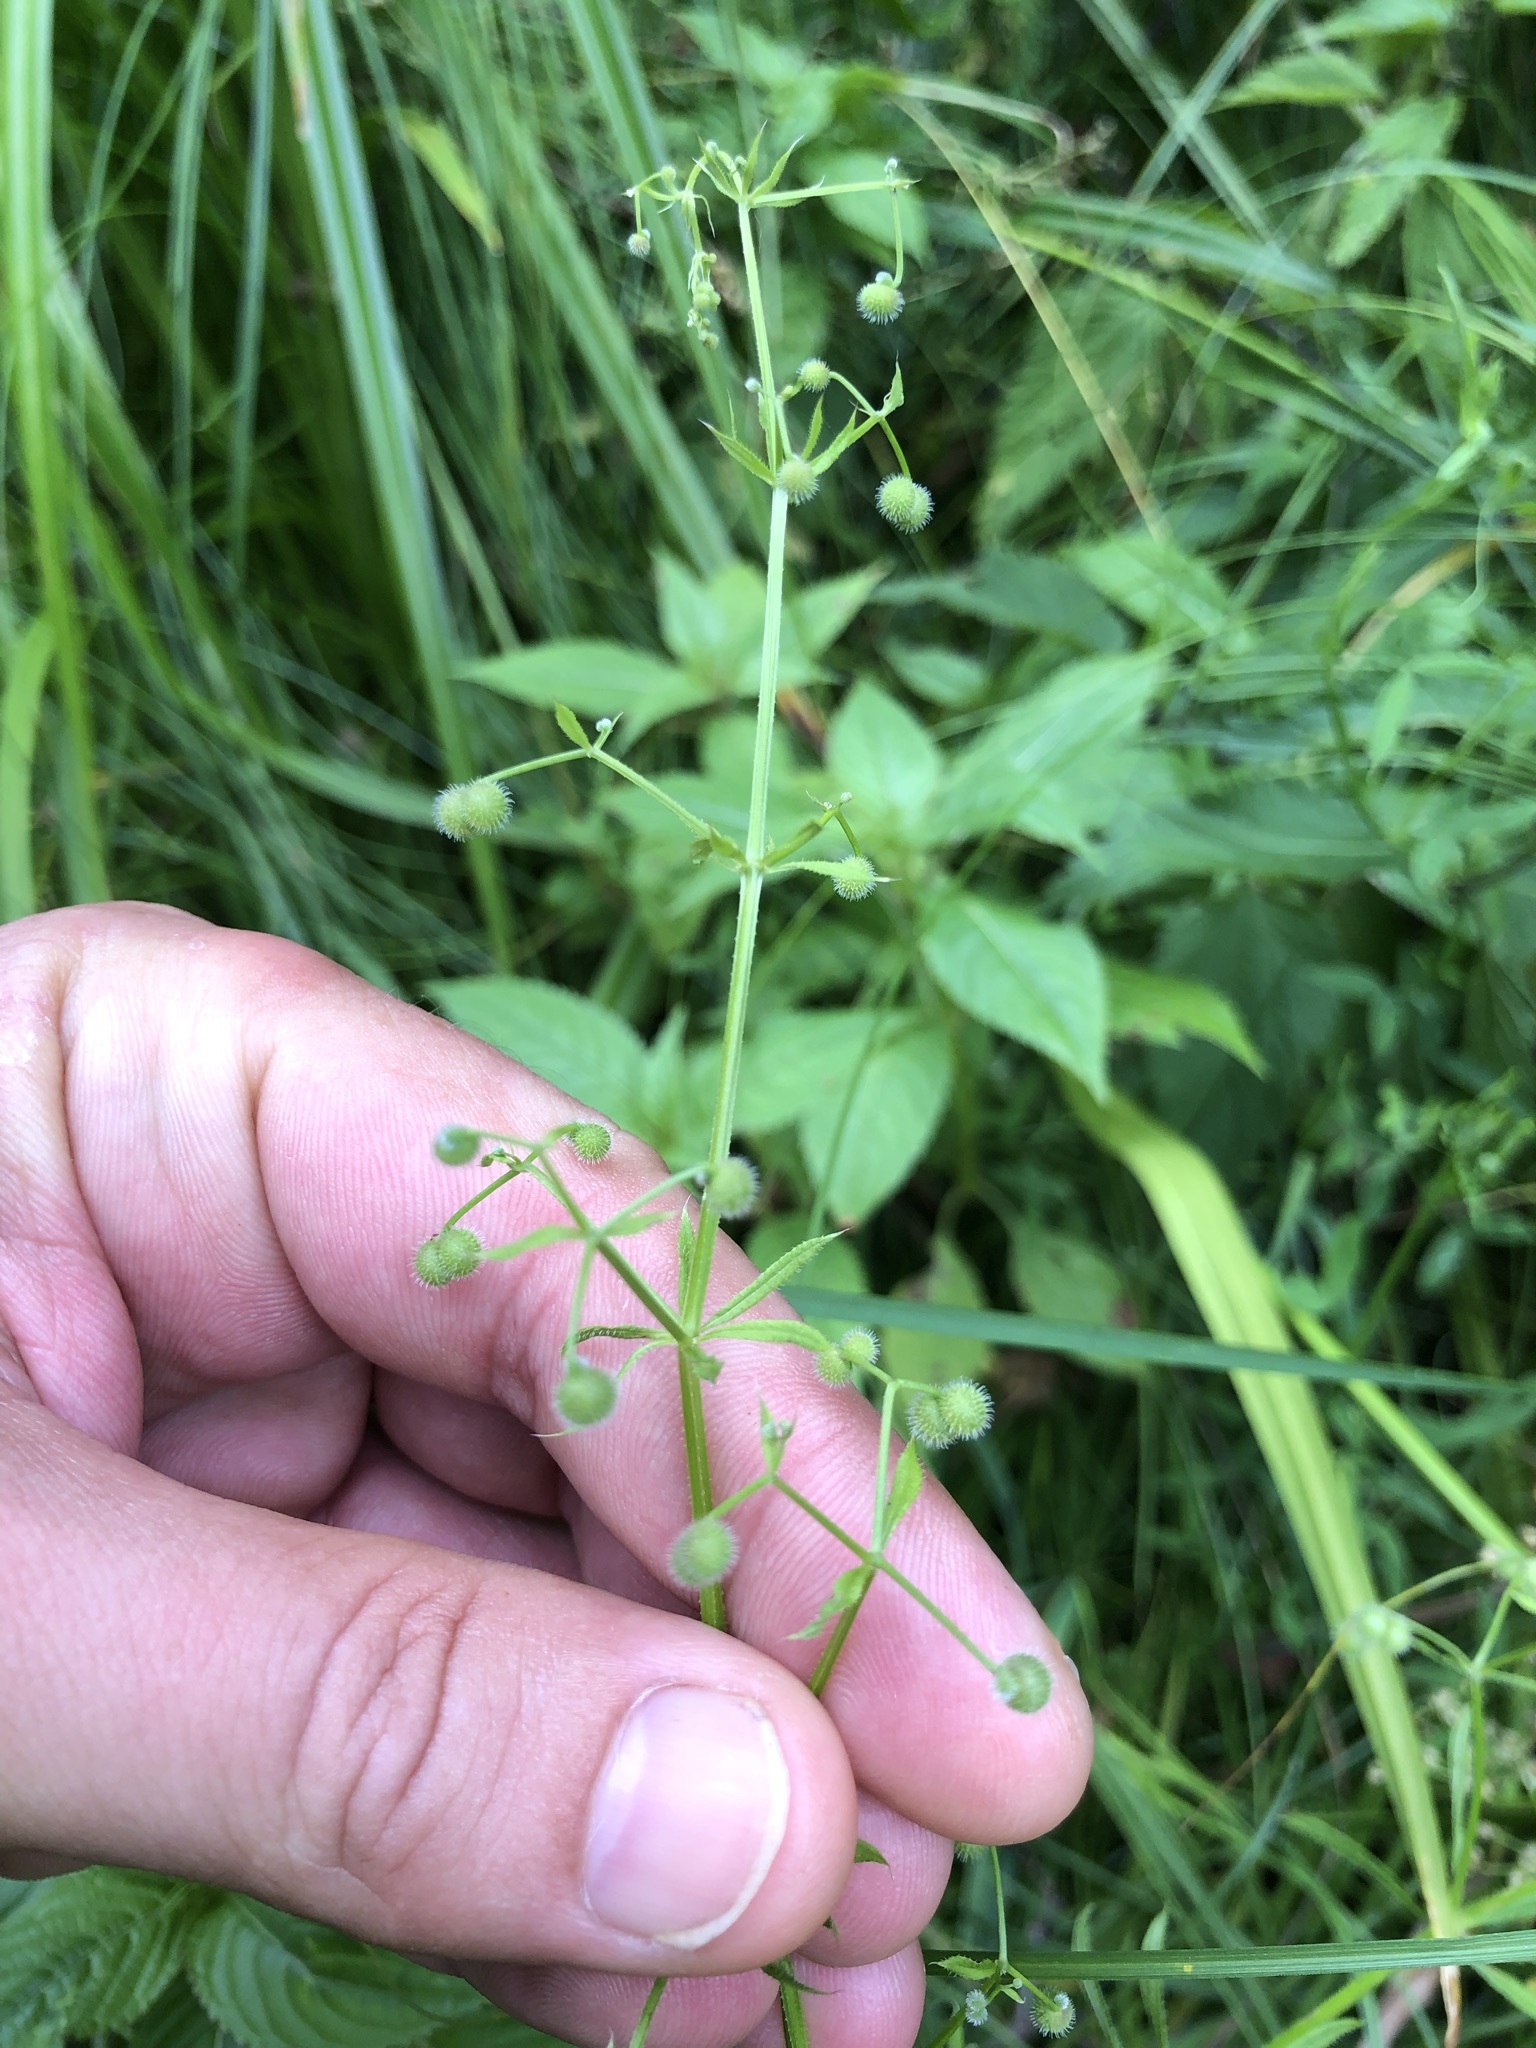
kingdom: Plantae
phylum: Tracheophyta
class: Magnoliopsida
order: Gentianales
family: Rubiaceae
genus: Galium
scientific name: Galium aparine
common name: Cleavers
